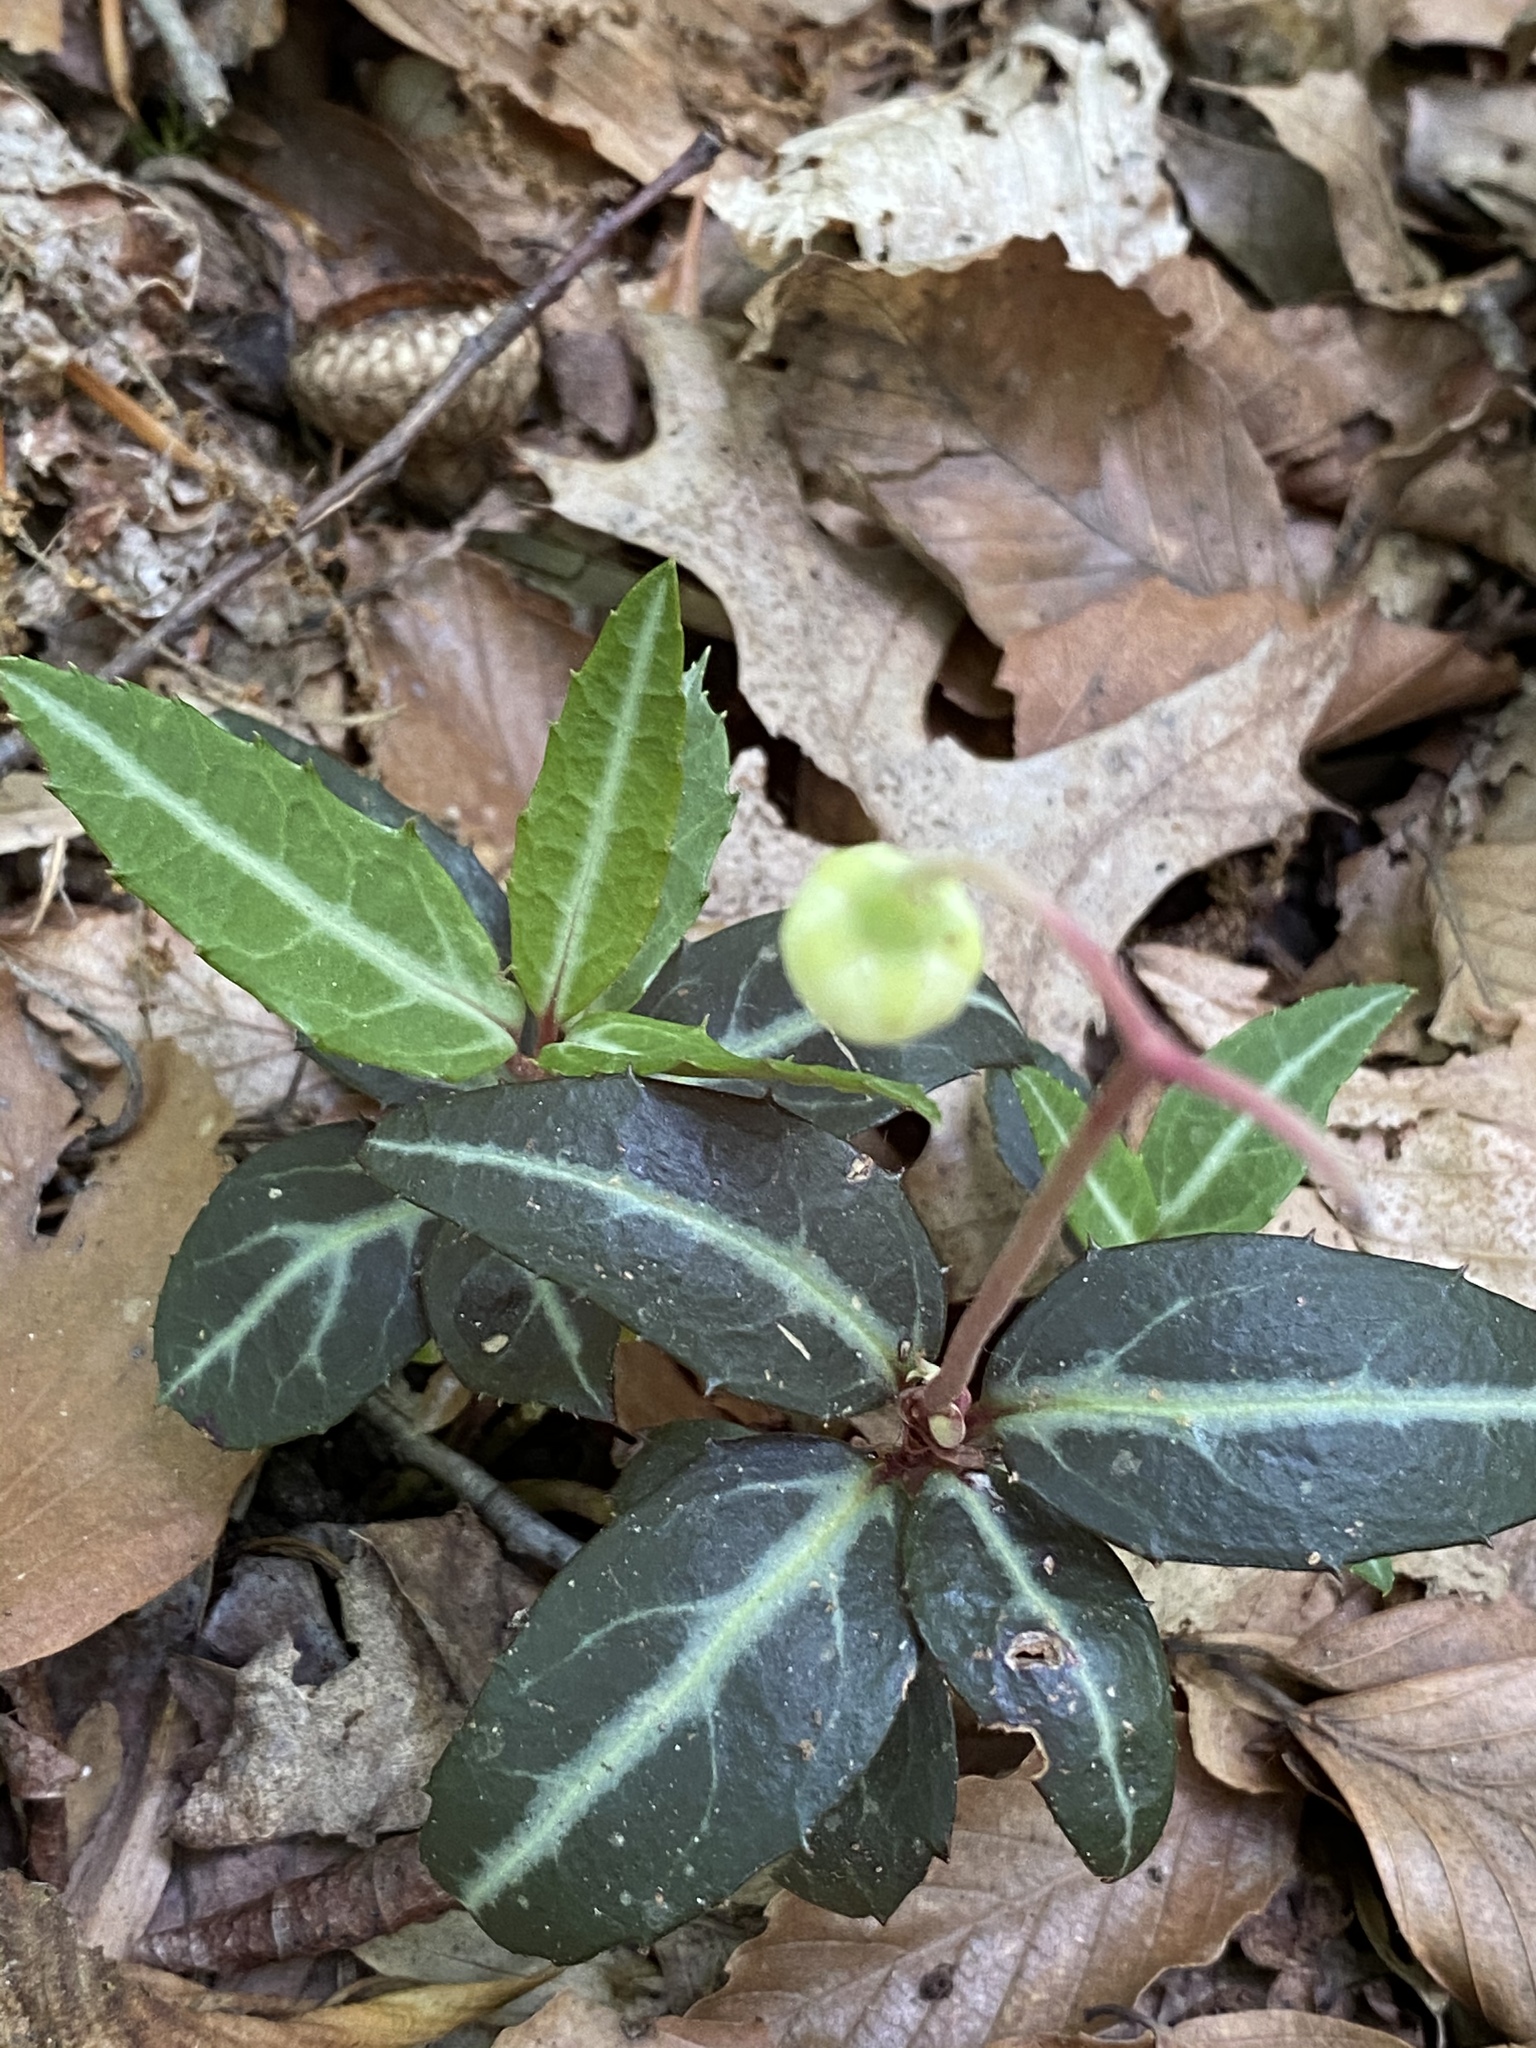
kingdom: Plantae
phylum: Tracheophyta
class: Magnoliopsida
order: Ericales
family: Ericaceae
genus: Chimaphila
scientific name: Chimaphila maculata
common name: Spotted pipsissewa
